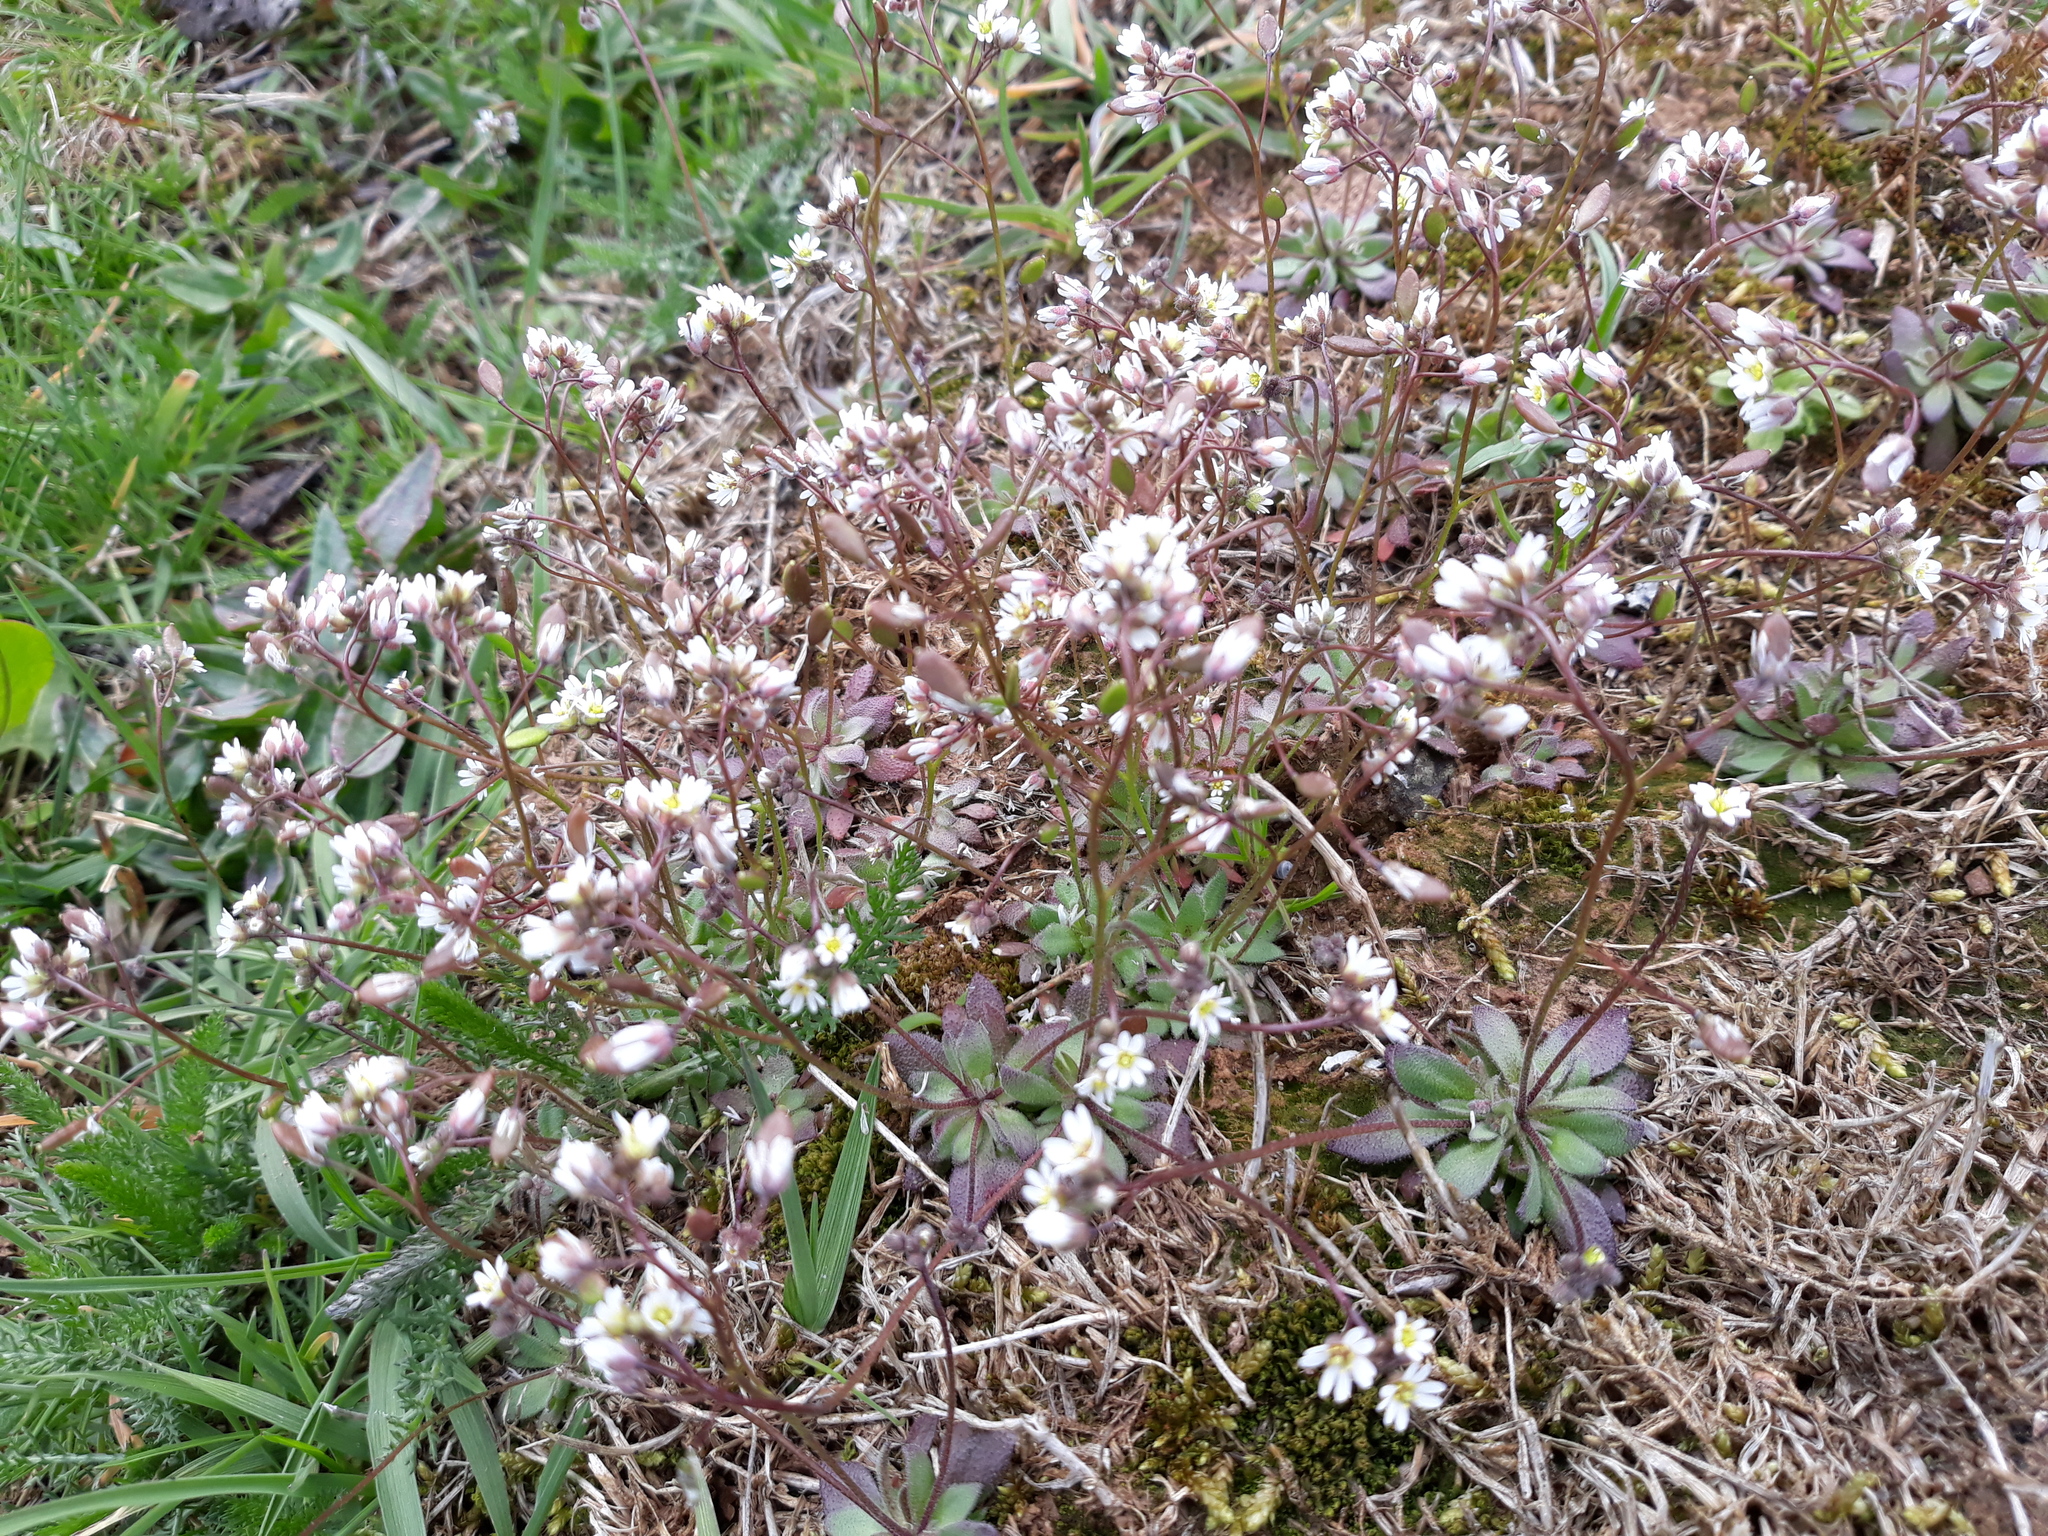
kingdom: Plantae
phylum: Tracheophyta
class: Magnoliopsida
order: Brassicales
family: Brassicaceae
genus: Draba
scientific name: Draba verna
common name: Spring draba
